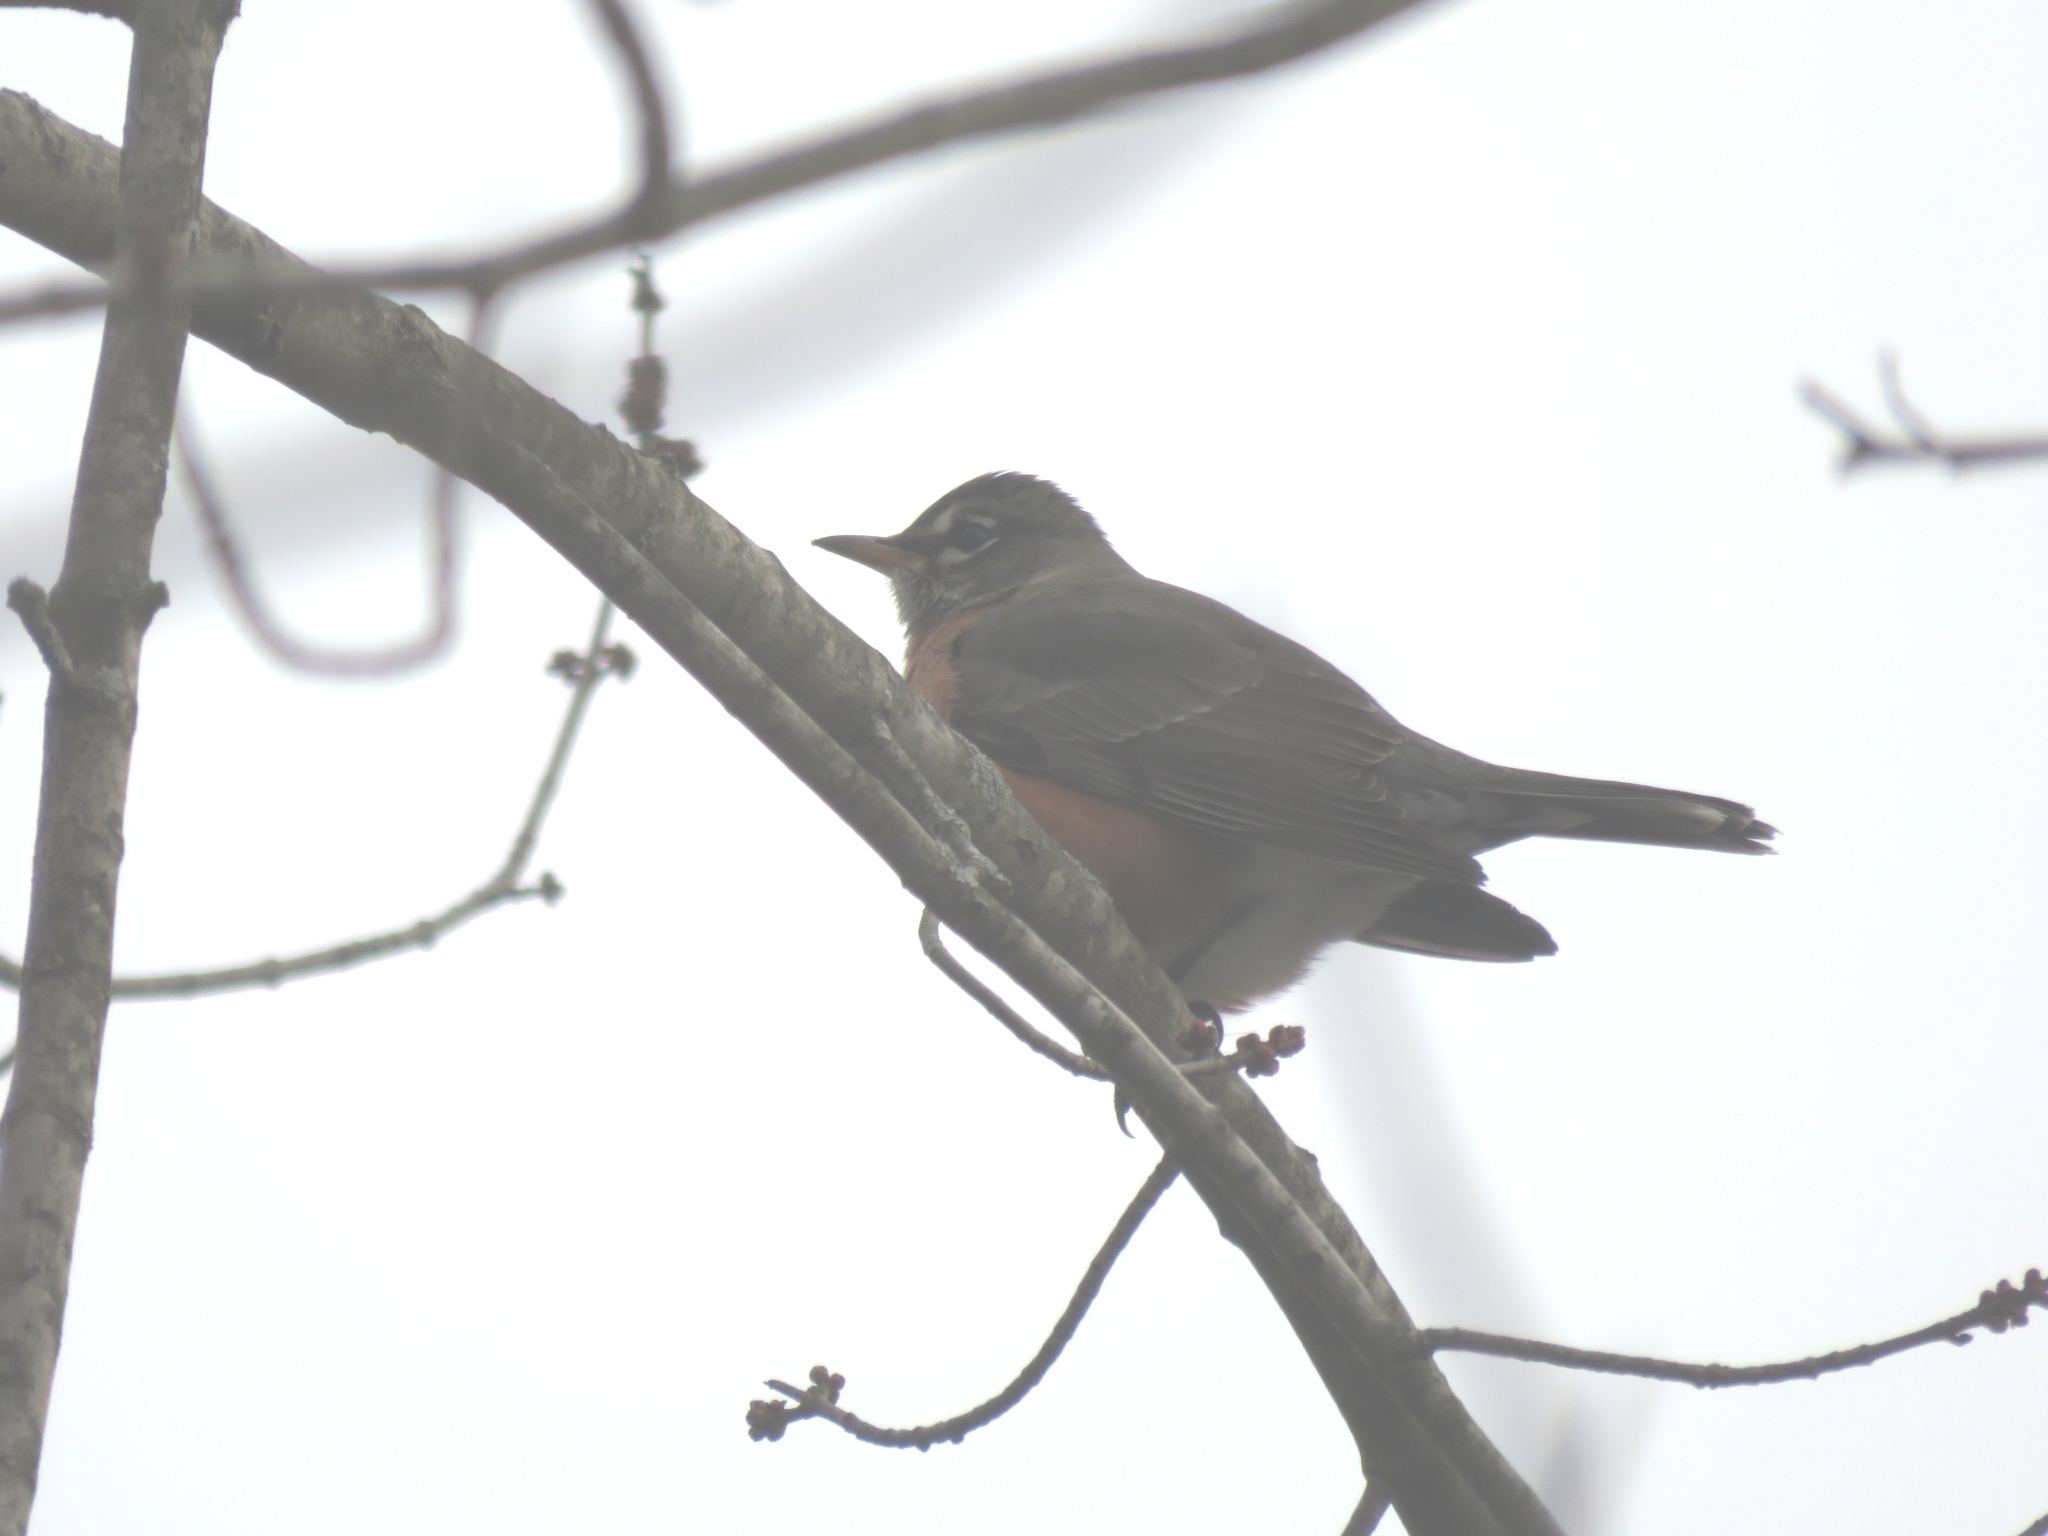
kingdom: Animalia
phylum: Chordata
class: Aves
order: Passeriformes
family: Turdidae
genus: Turdus
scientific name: Turdus migratorius
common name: American robin
